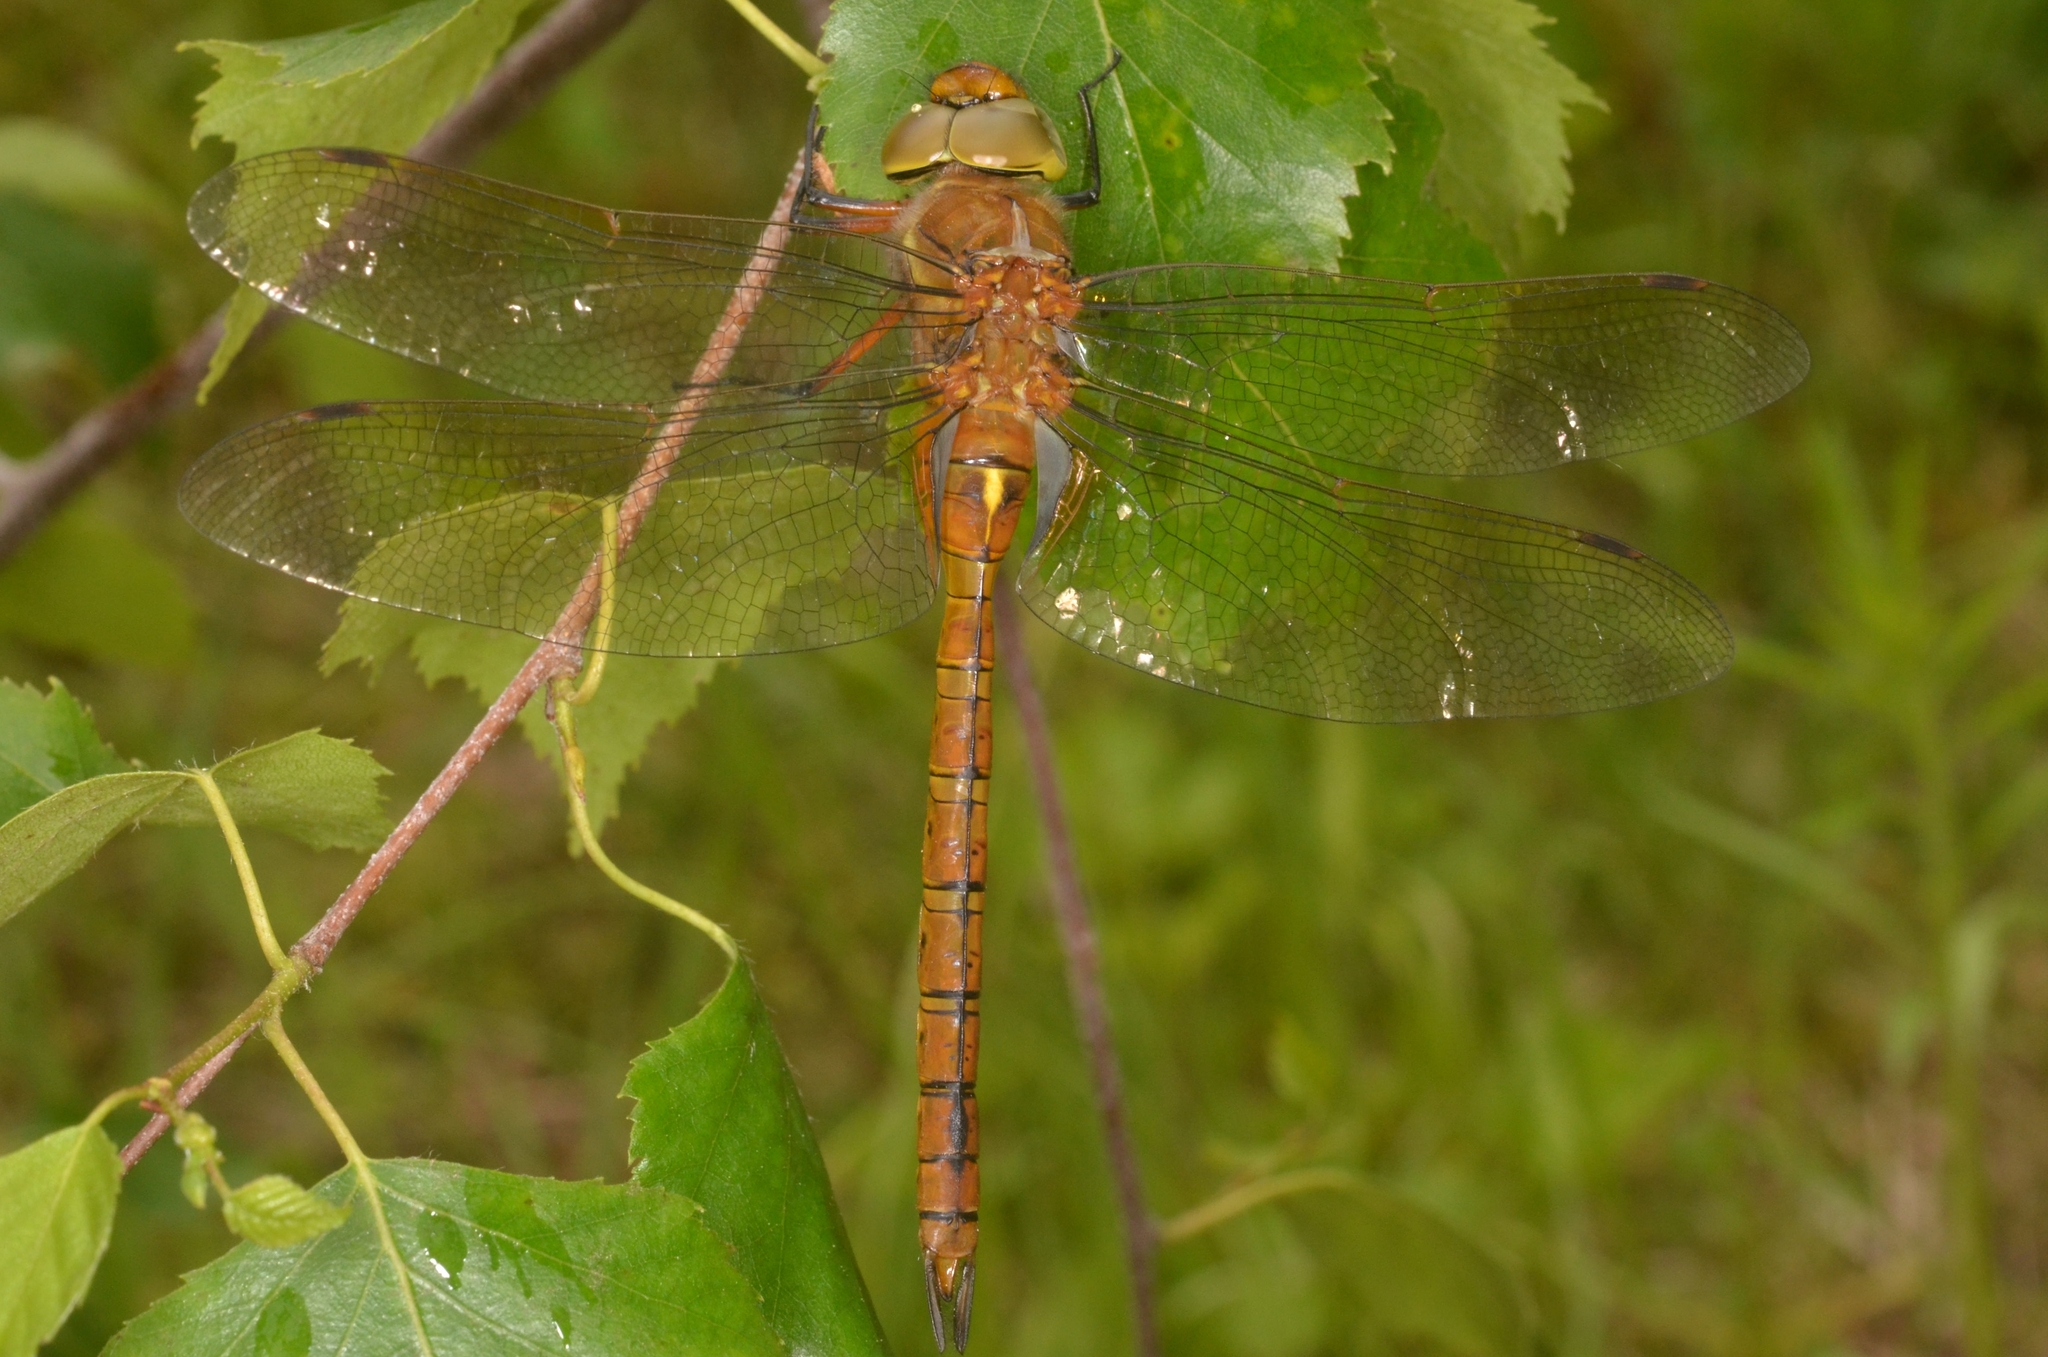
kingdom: Animalia
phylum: Arthropoda
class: Insecta
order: Odonata
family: Aeshnidae
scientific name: Aeshnidae
